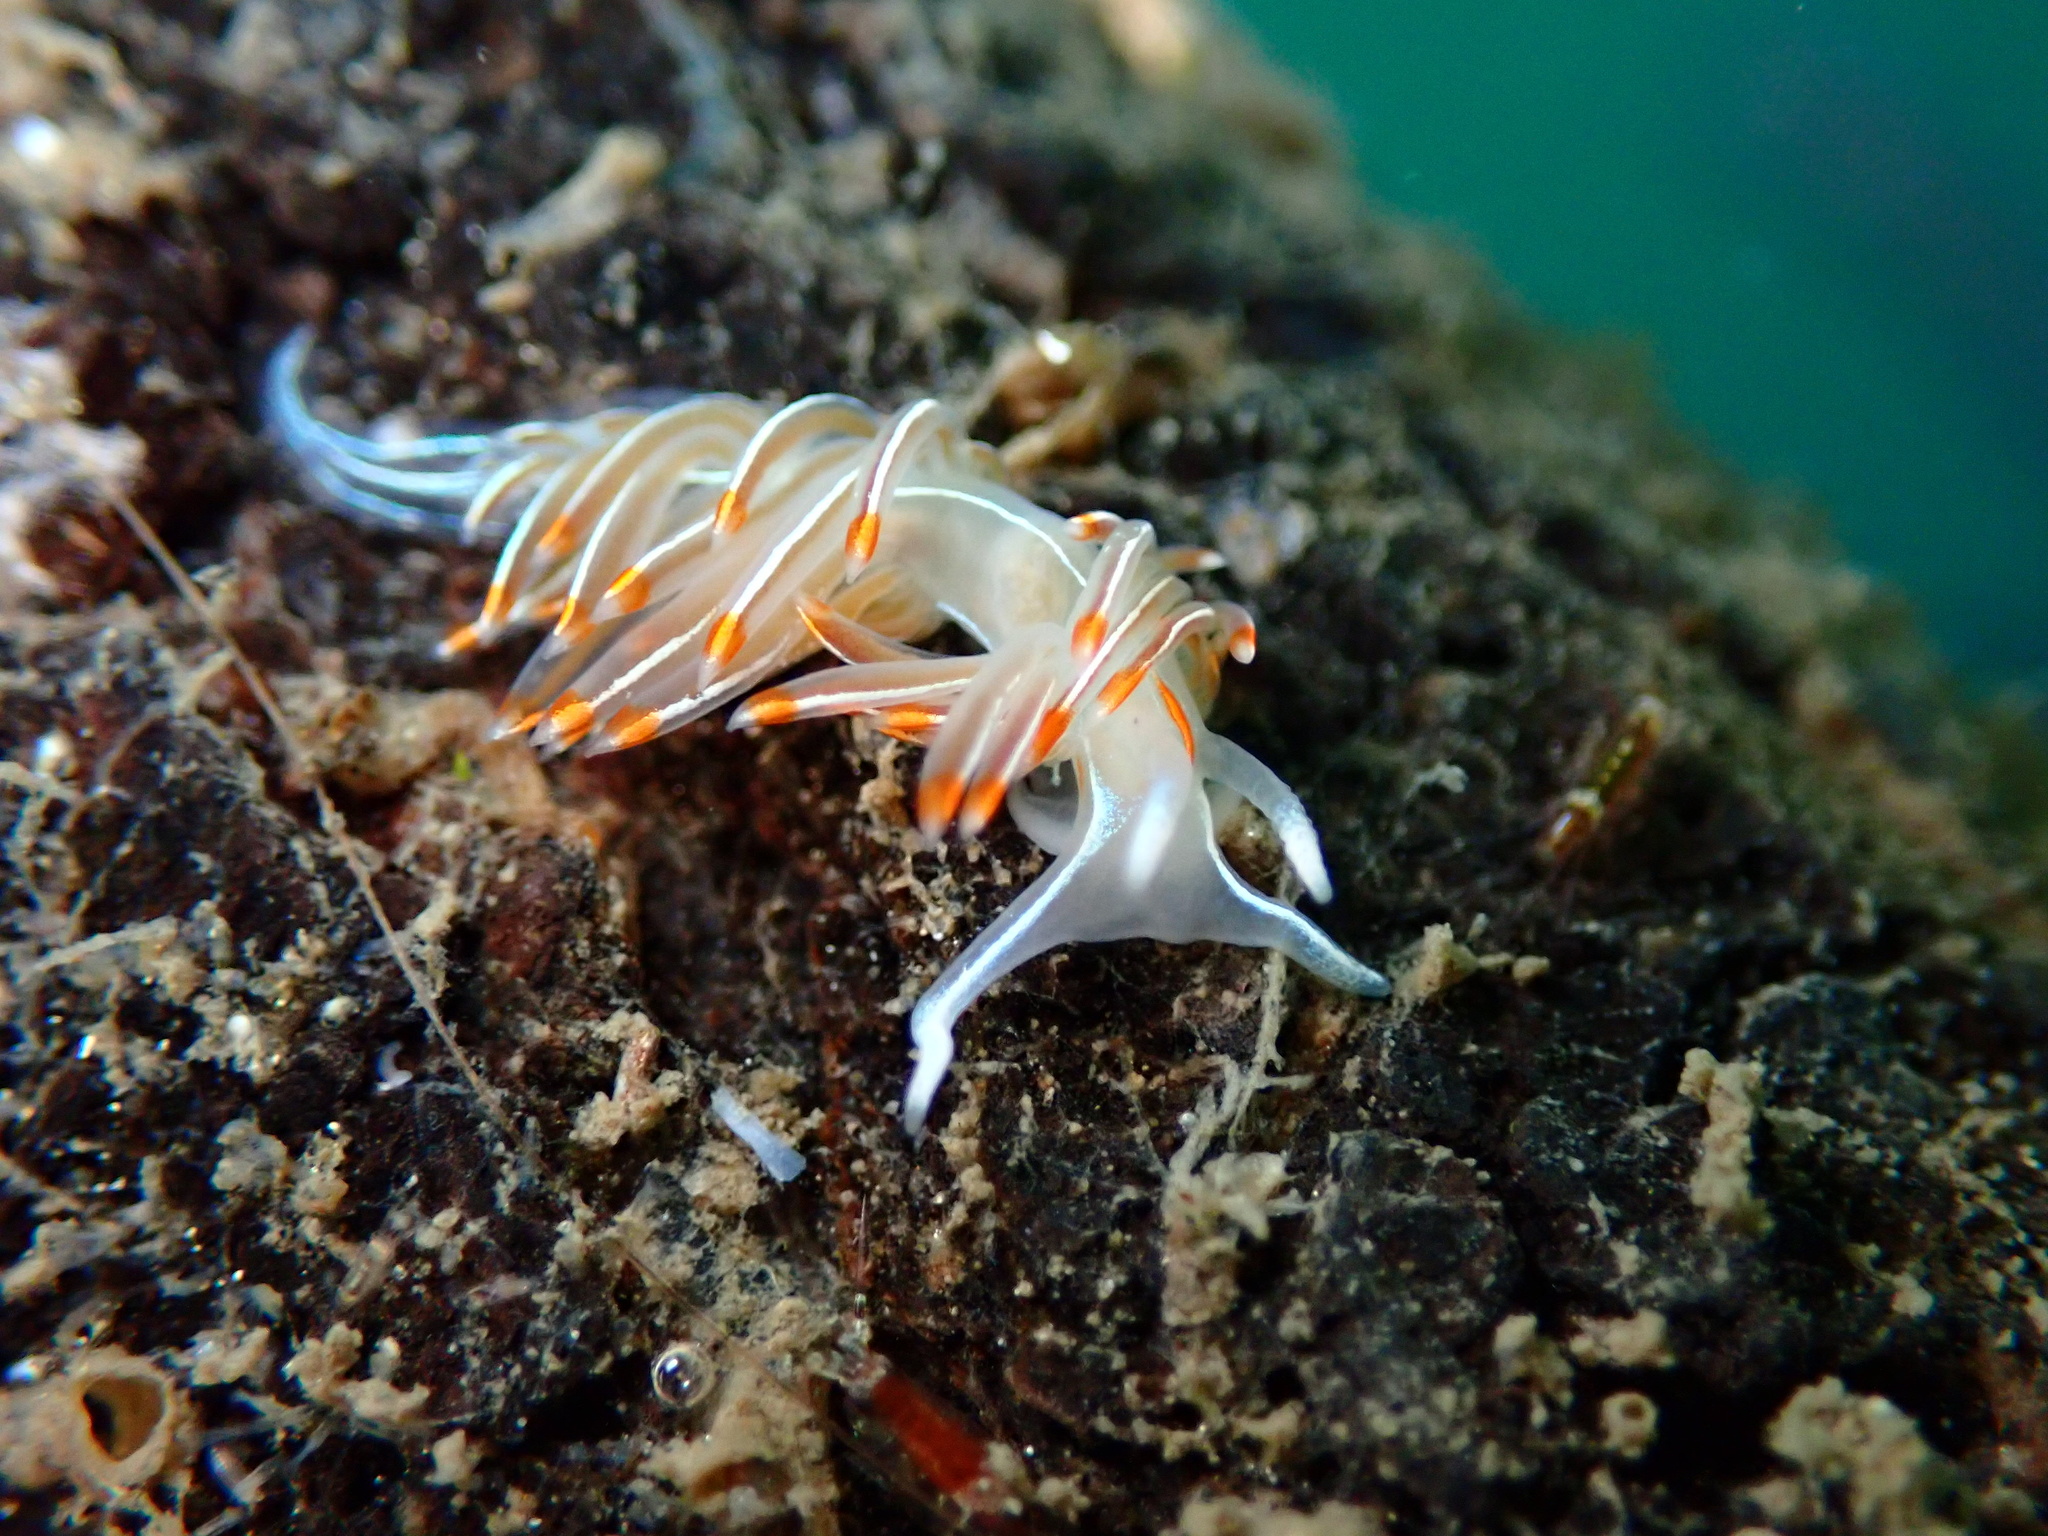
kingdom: Animalia
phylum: Mollusca
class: Gastropoda
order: Nudibranchia
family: Myrrhinidae
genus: Hermissenda
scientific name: Hermissenda crassicornis
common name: Hermissenda
